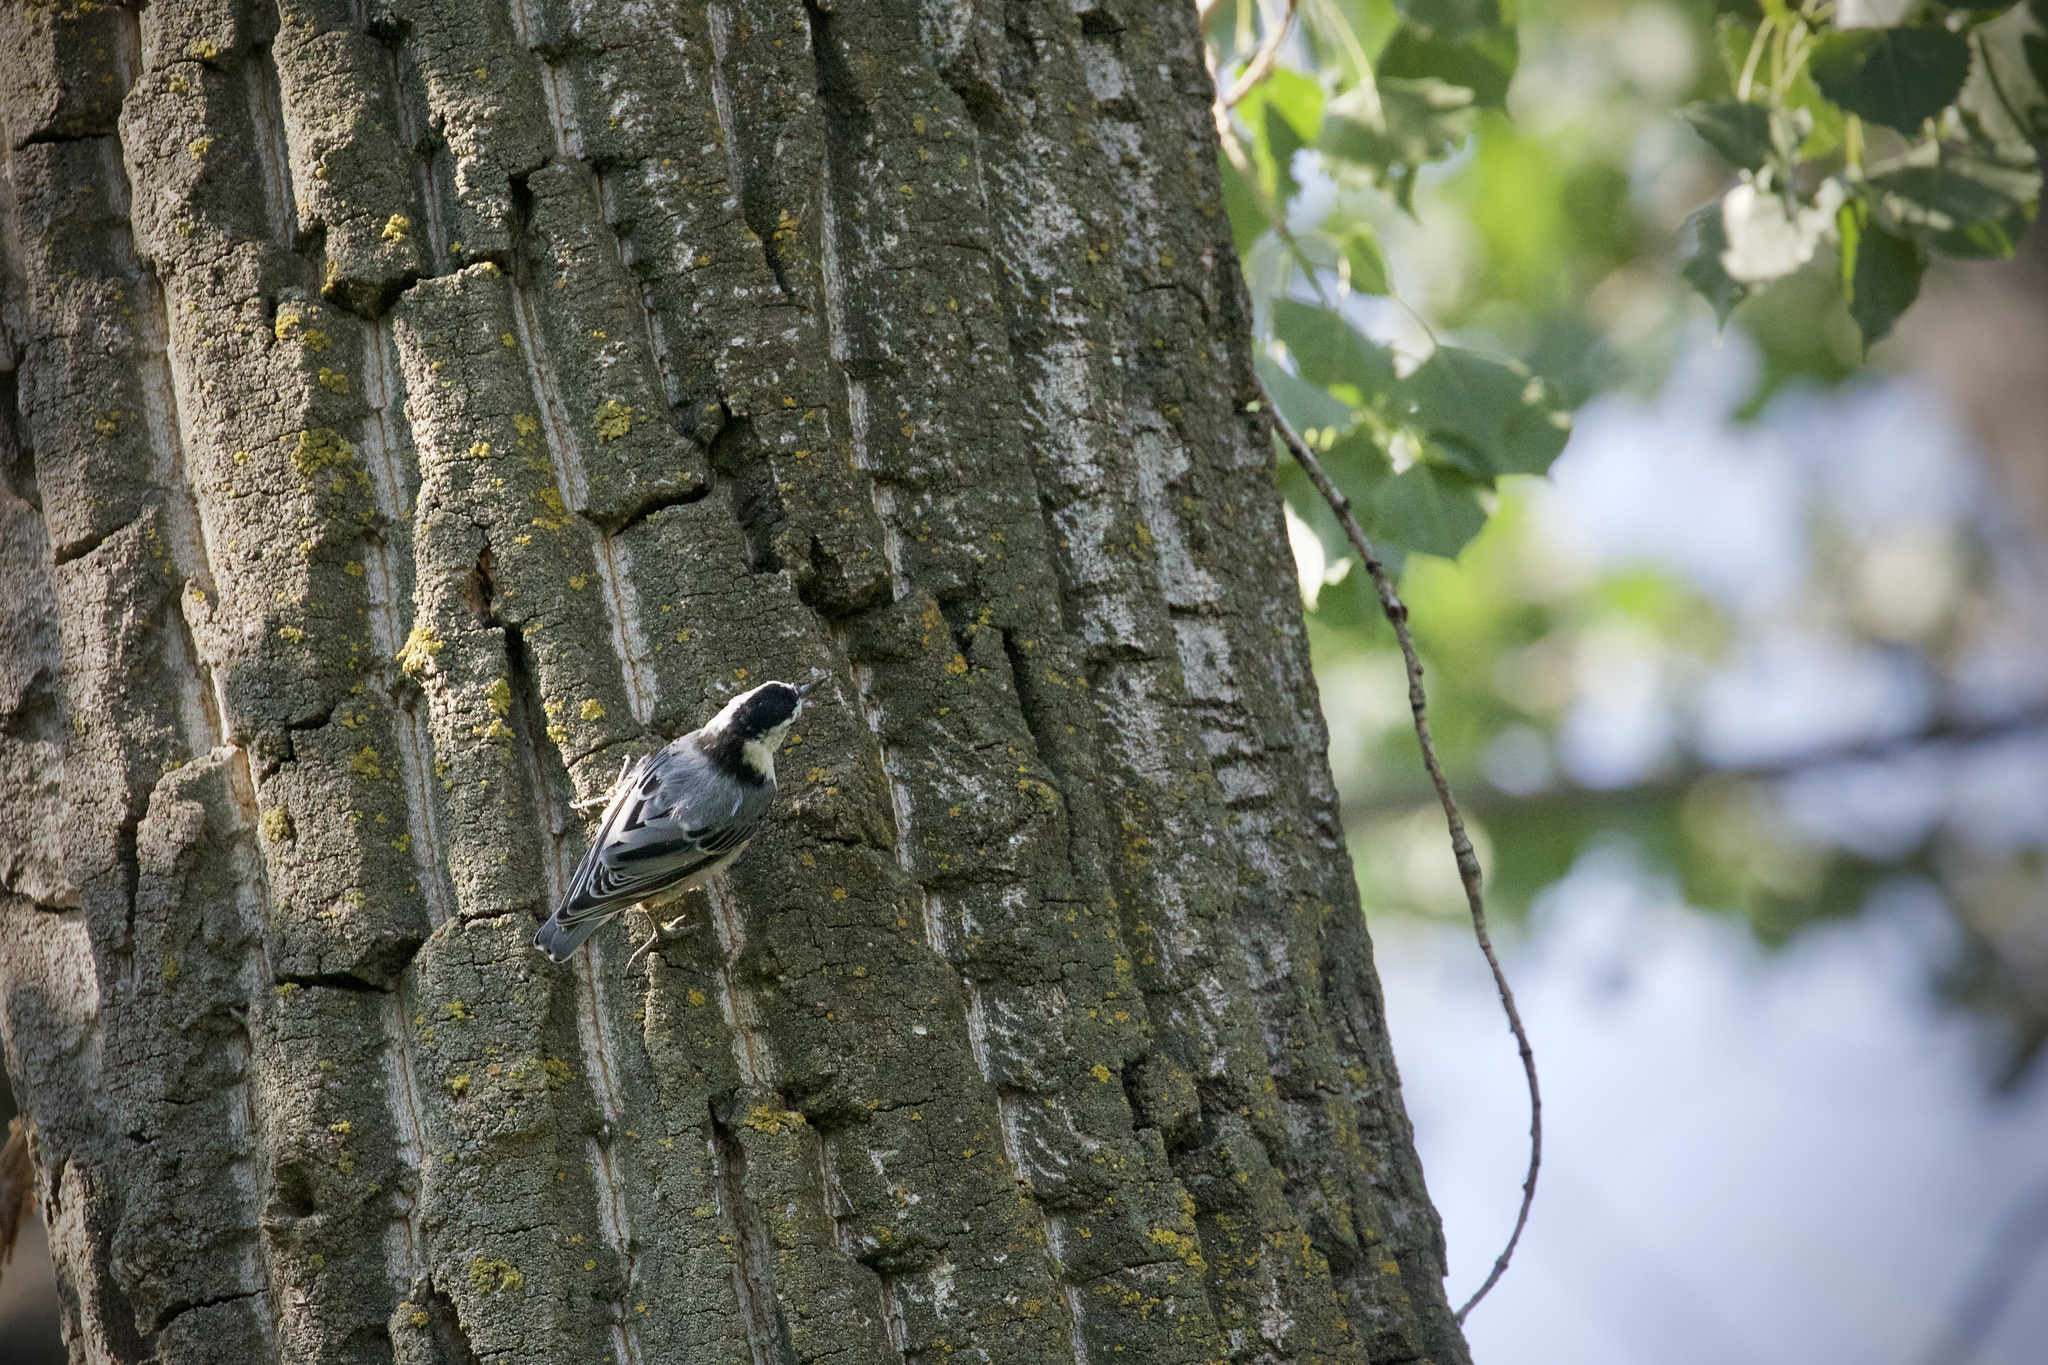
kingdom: Animalia
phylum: Chordata
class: Aves
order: Passeriformes
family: Sittidae
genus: Sitta
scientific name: Sitta carolinensis
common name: White-breasted nuthatch
